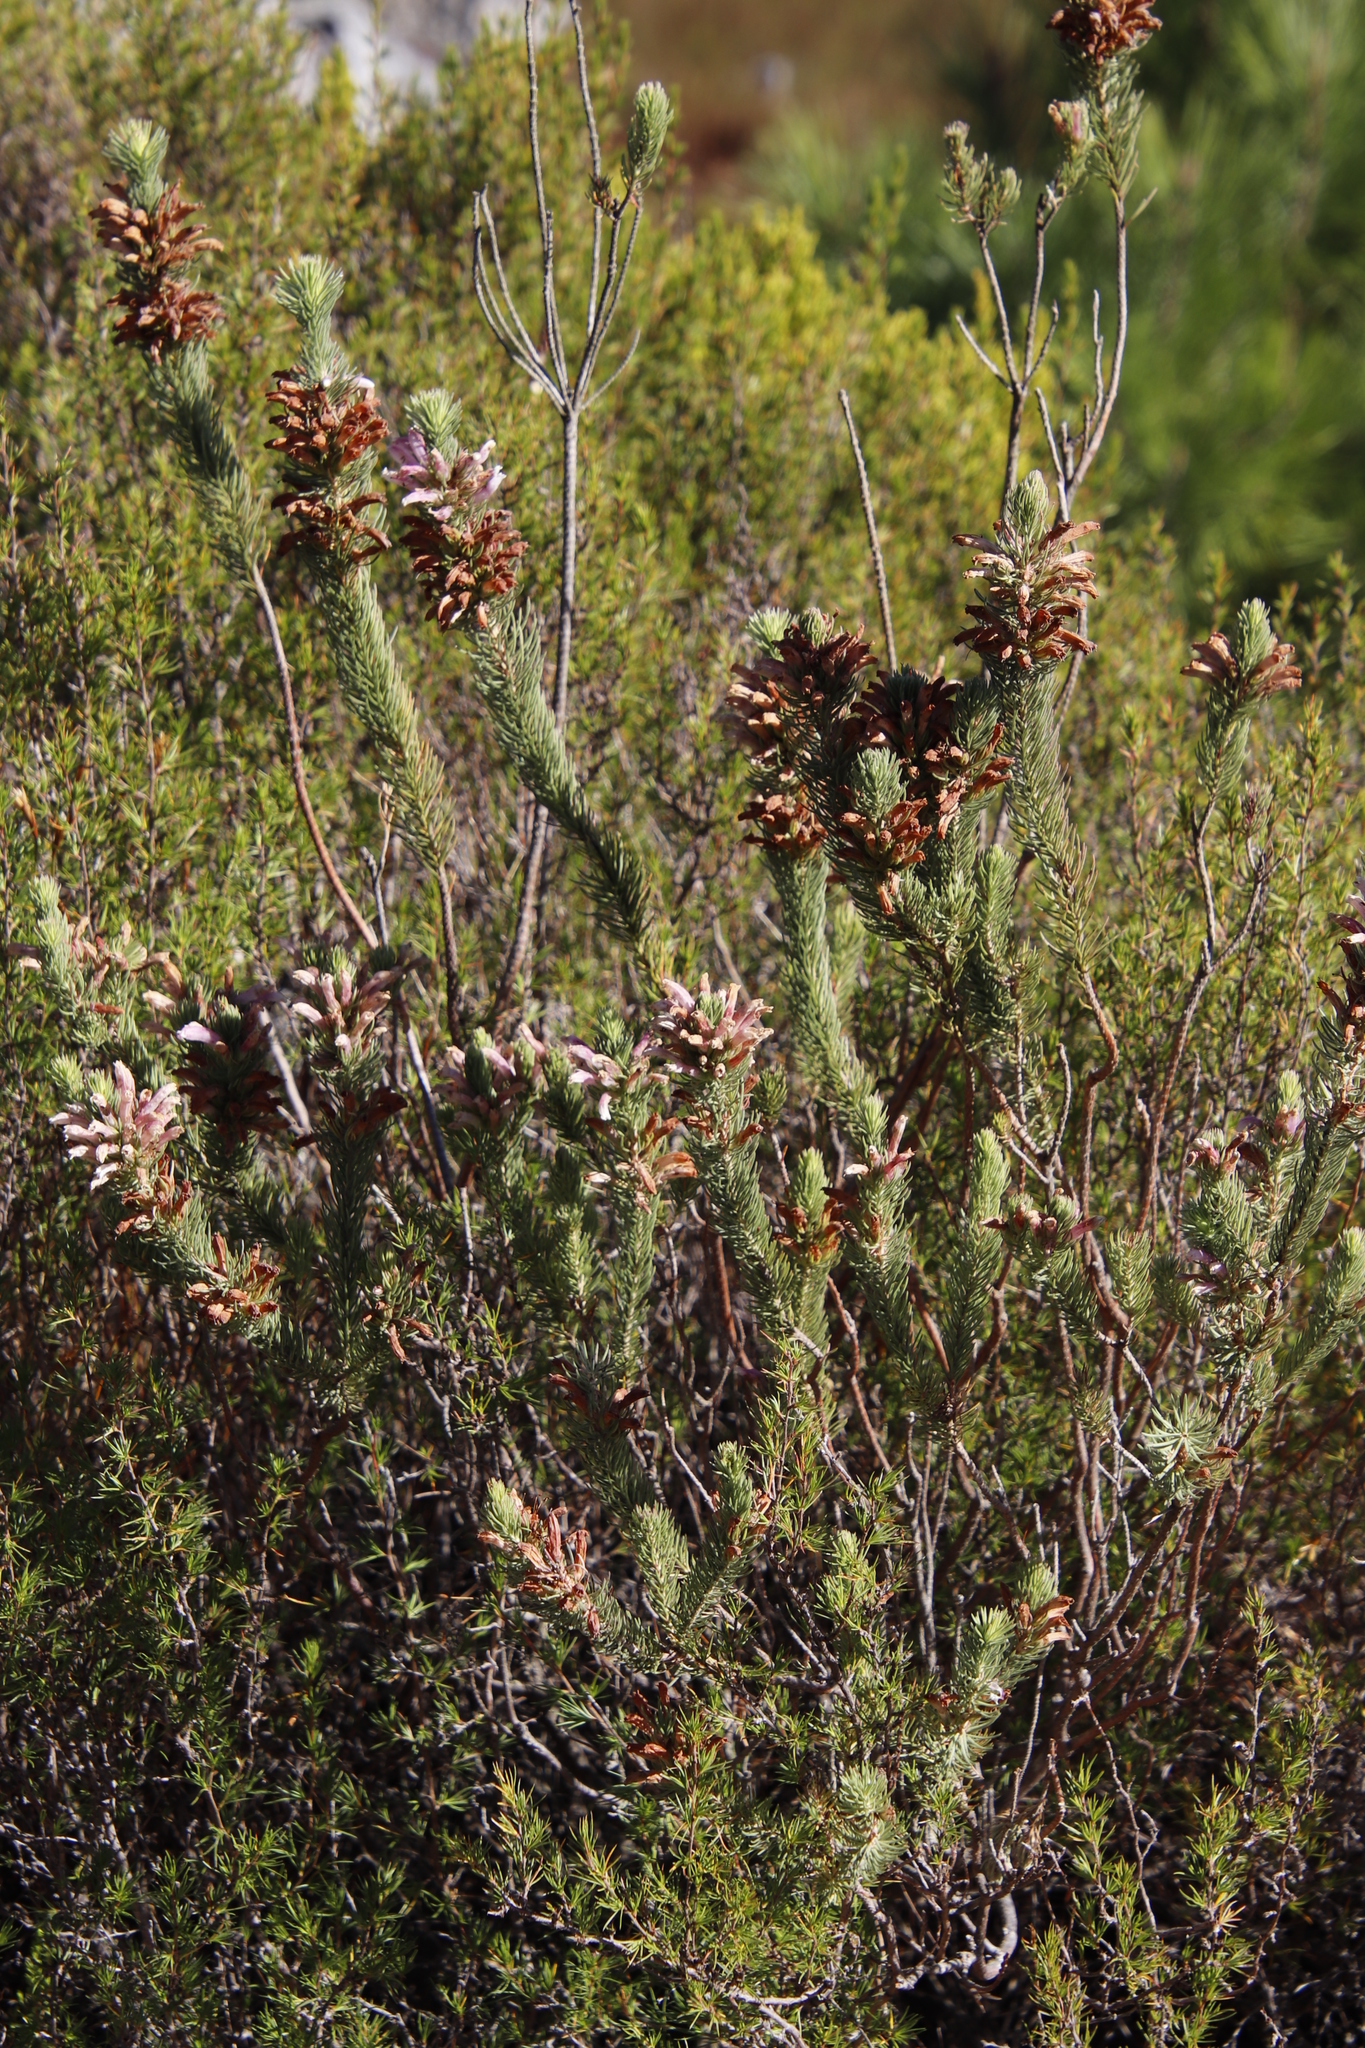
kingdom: Plantae
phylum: Tracheophyta
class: Magnoliopsida
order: Ericales
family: Ericaceae
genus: Erica
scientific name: Erica viscaria
